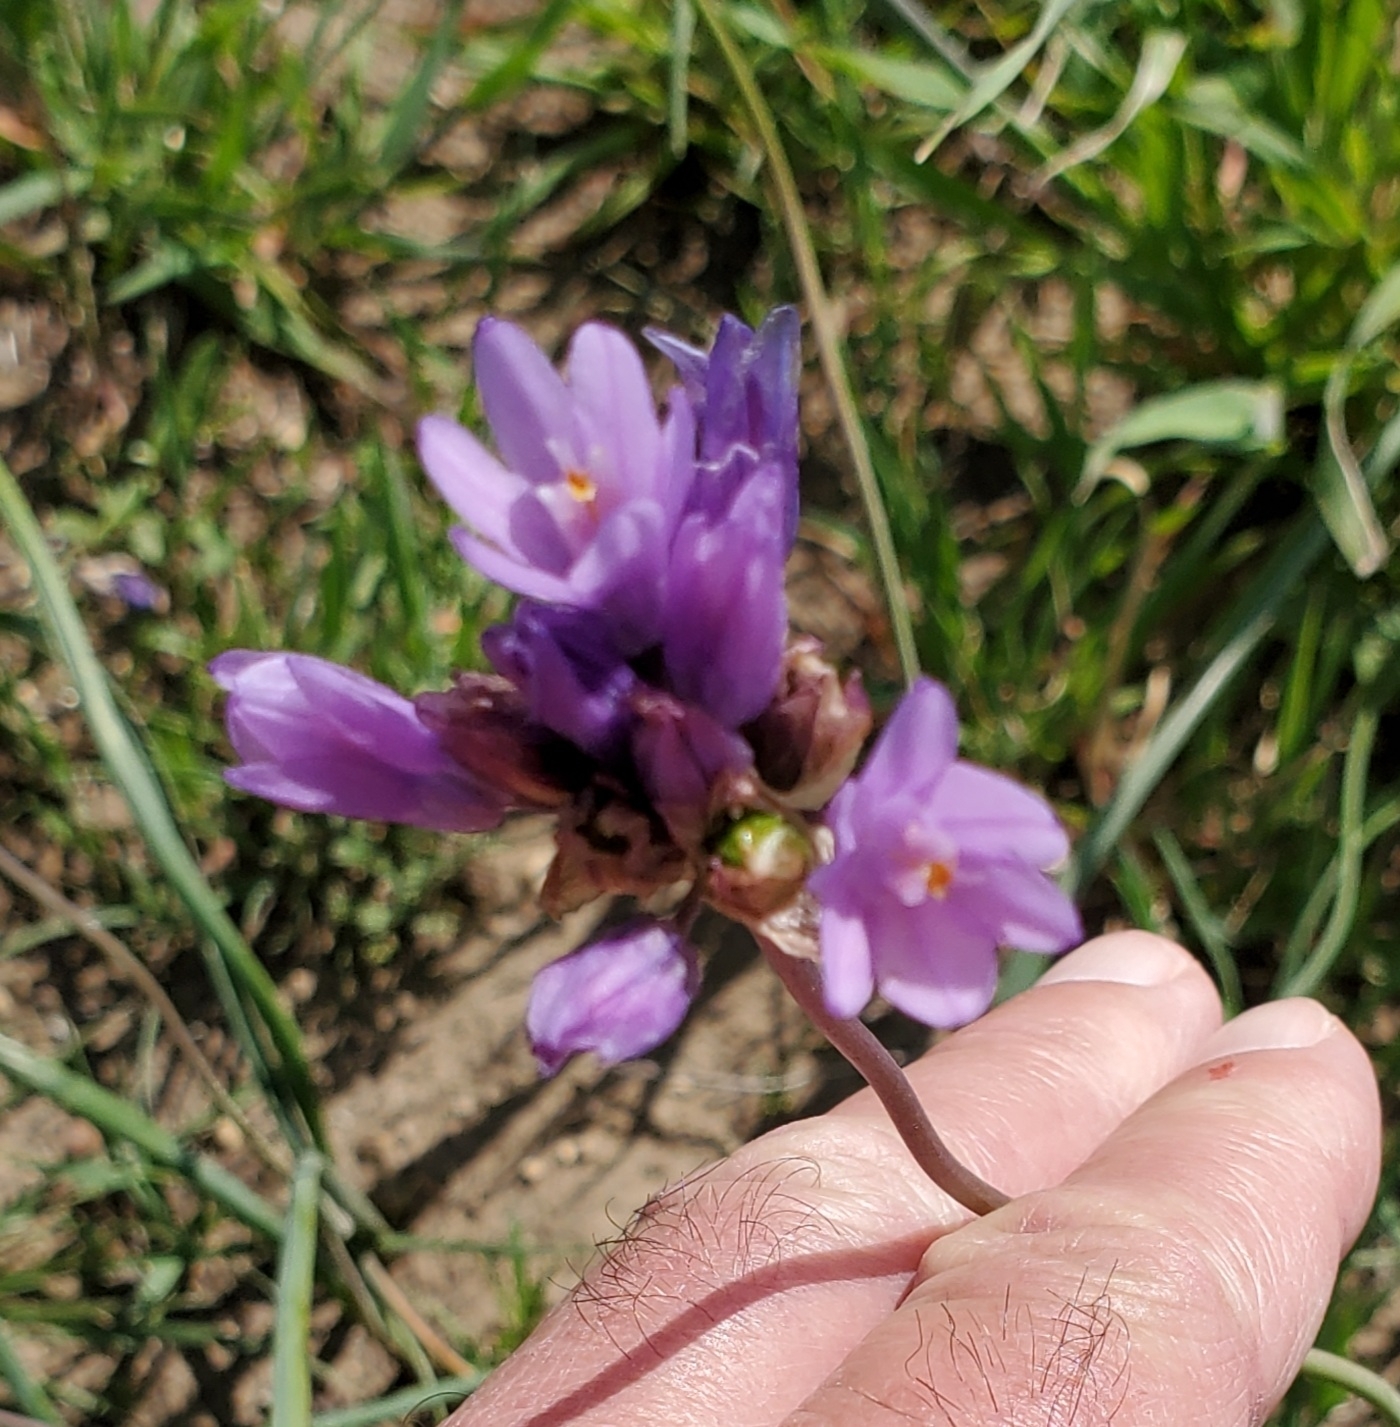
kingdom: Plantae
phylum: Tracheophyta
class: Liliopsida
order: Asparagales
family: Asparagaceae
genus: Dipterostemon
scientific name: Dipterostemon capitatus
